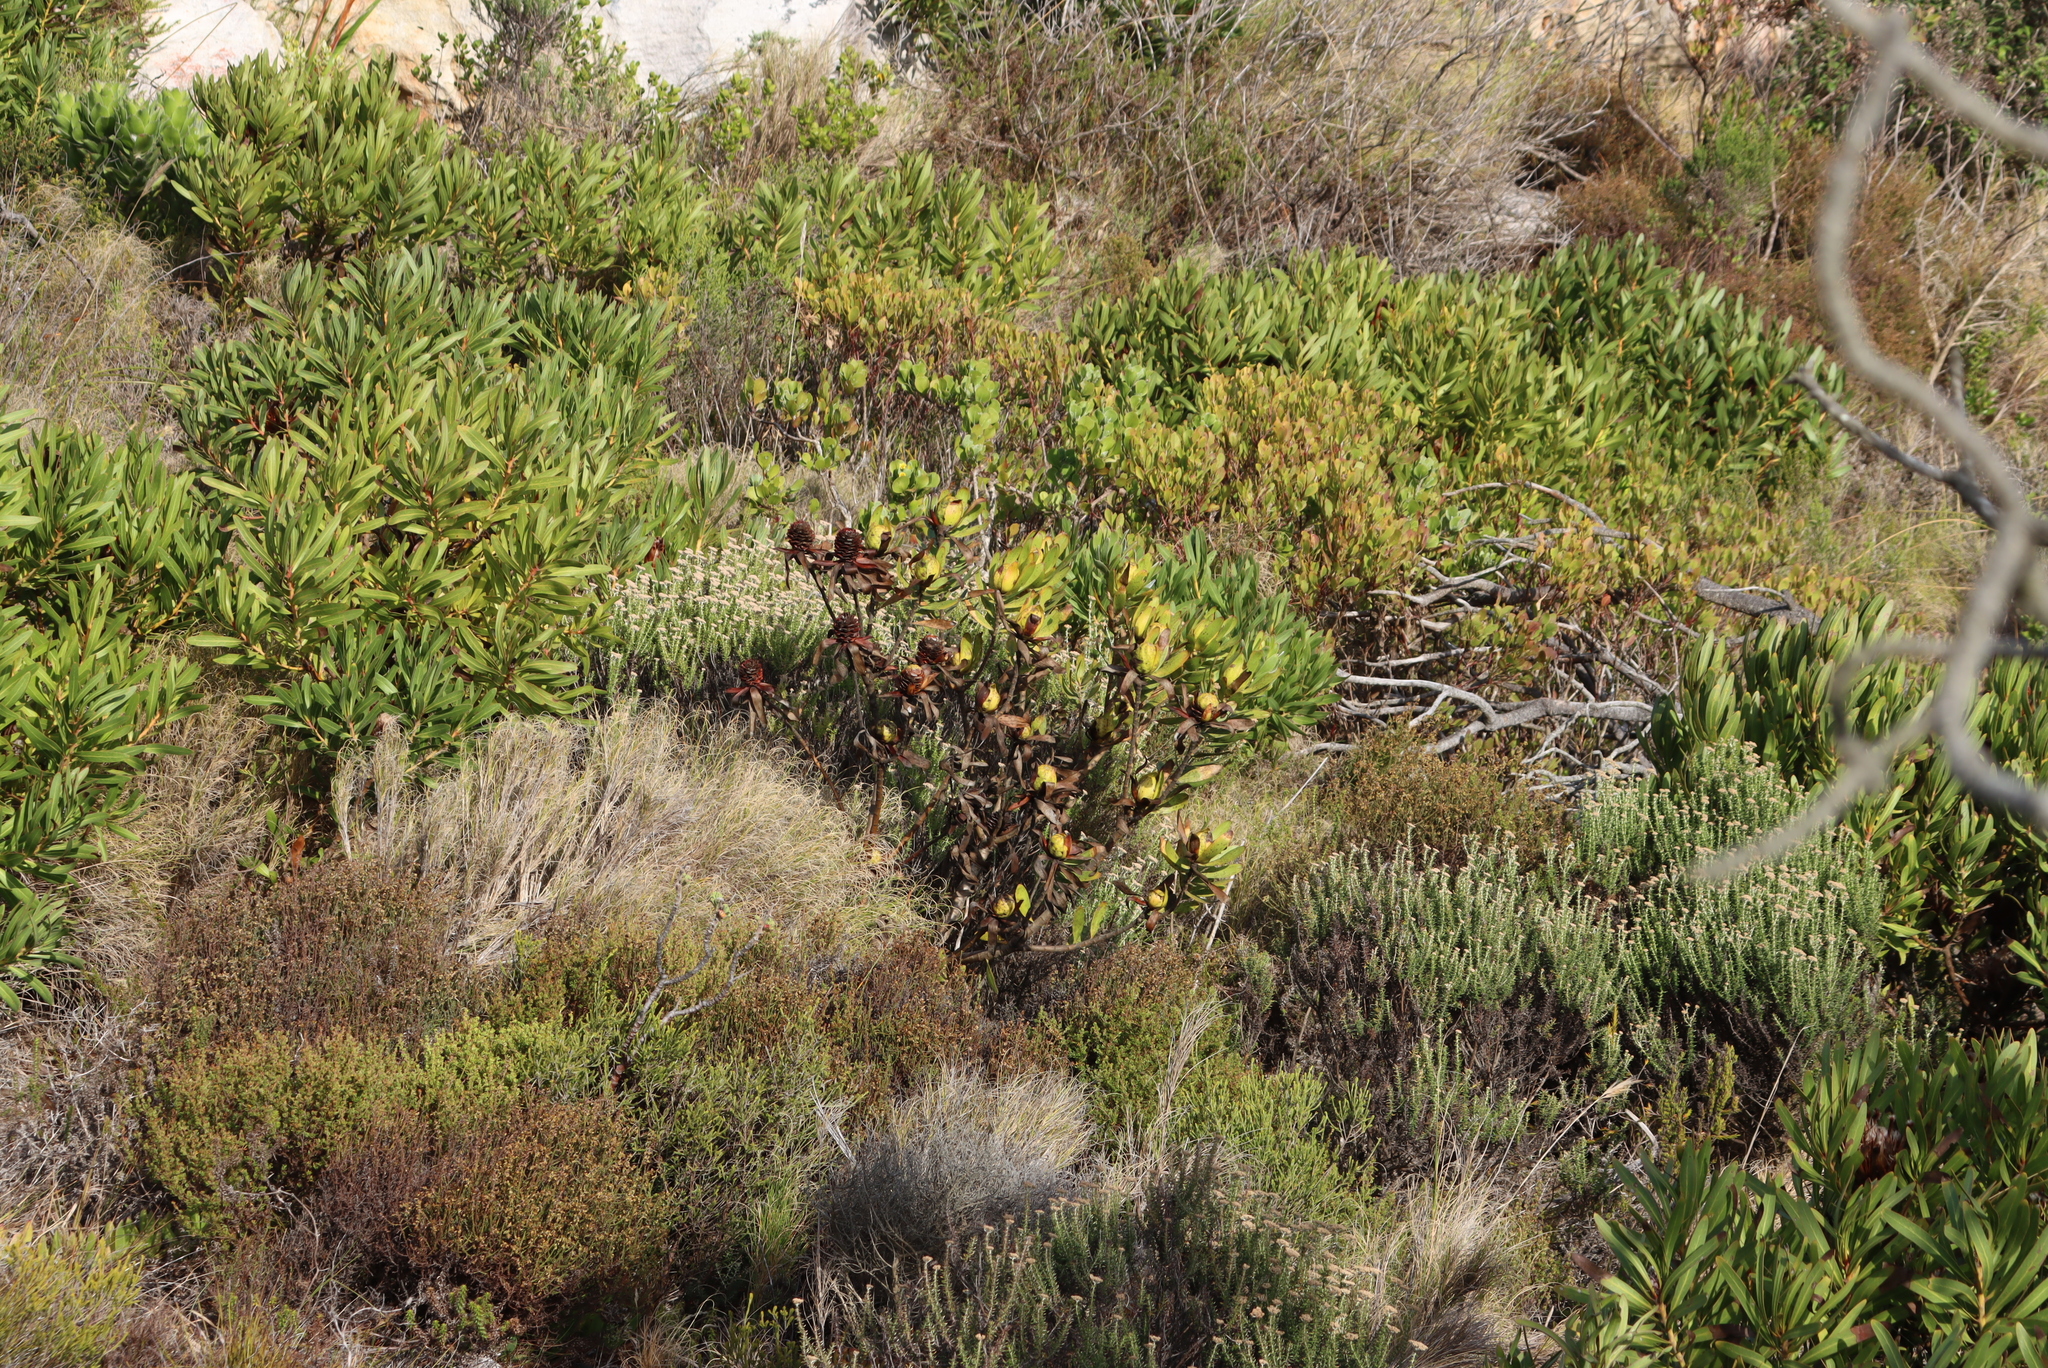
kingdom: Plantae
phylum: Tracheophyta
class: Magnoliopsida
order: Proteales
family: Proteaceae
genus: Leucadendron
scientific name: Leucadendron laureolum
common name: Golden sunshinebush
